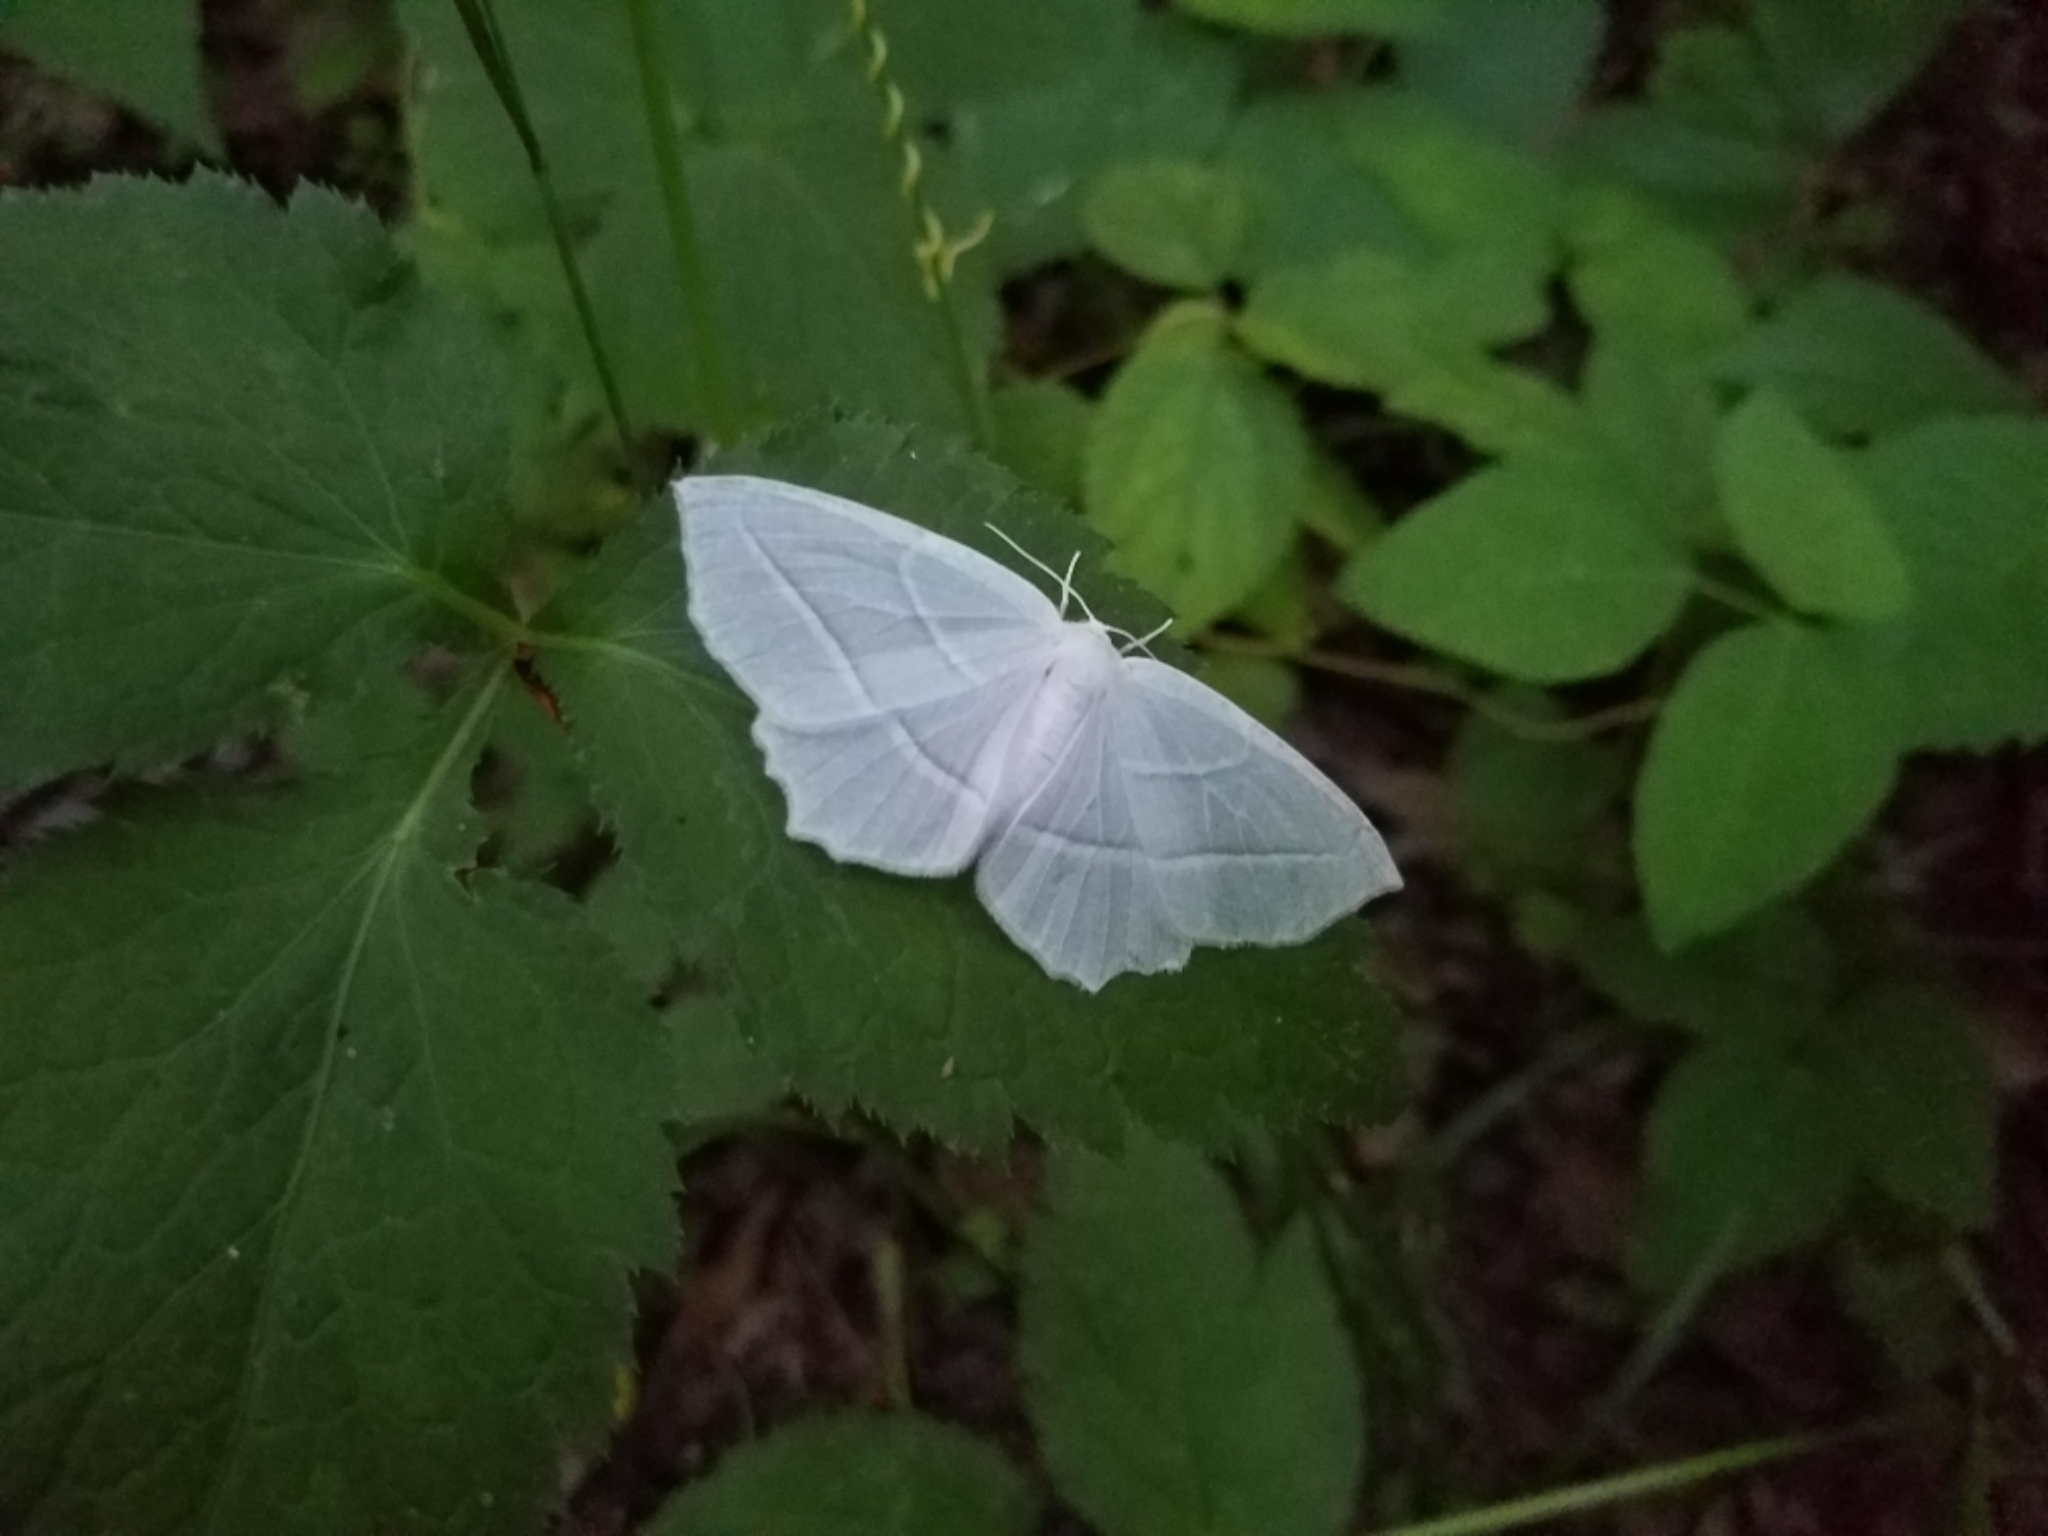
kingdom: Animalia
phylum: Arthropoda
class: Insecta
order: Lepidoptera
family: Geometridae
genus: Campaea
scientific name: Campaea perlata
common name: Fringed looper
